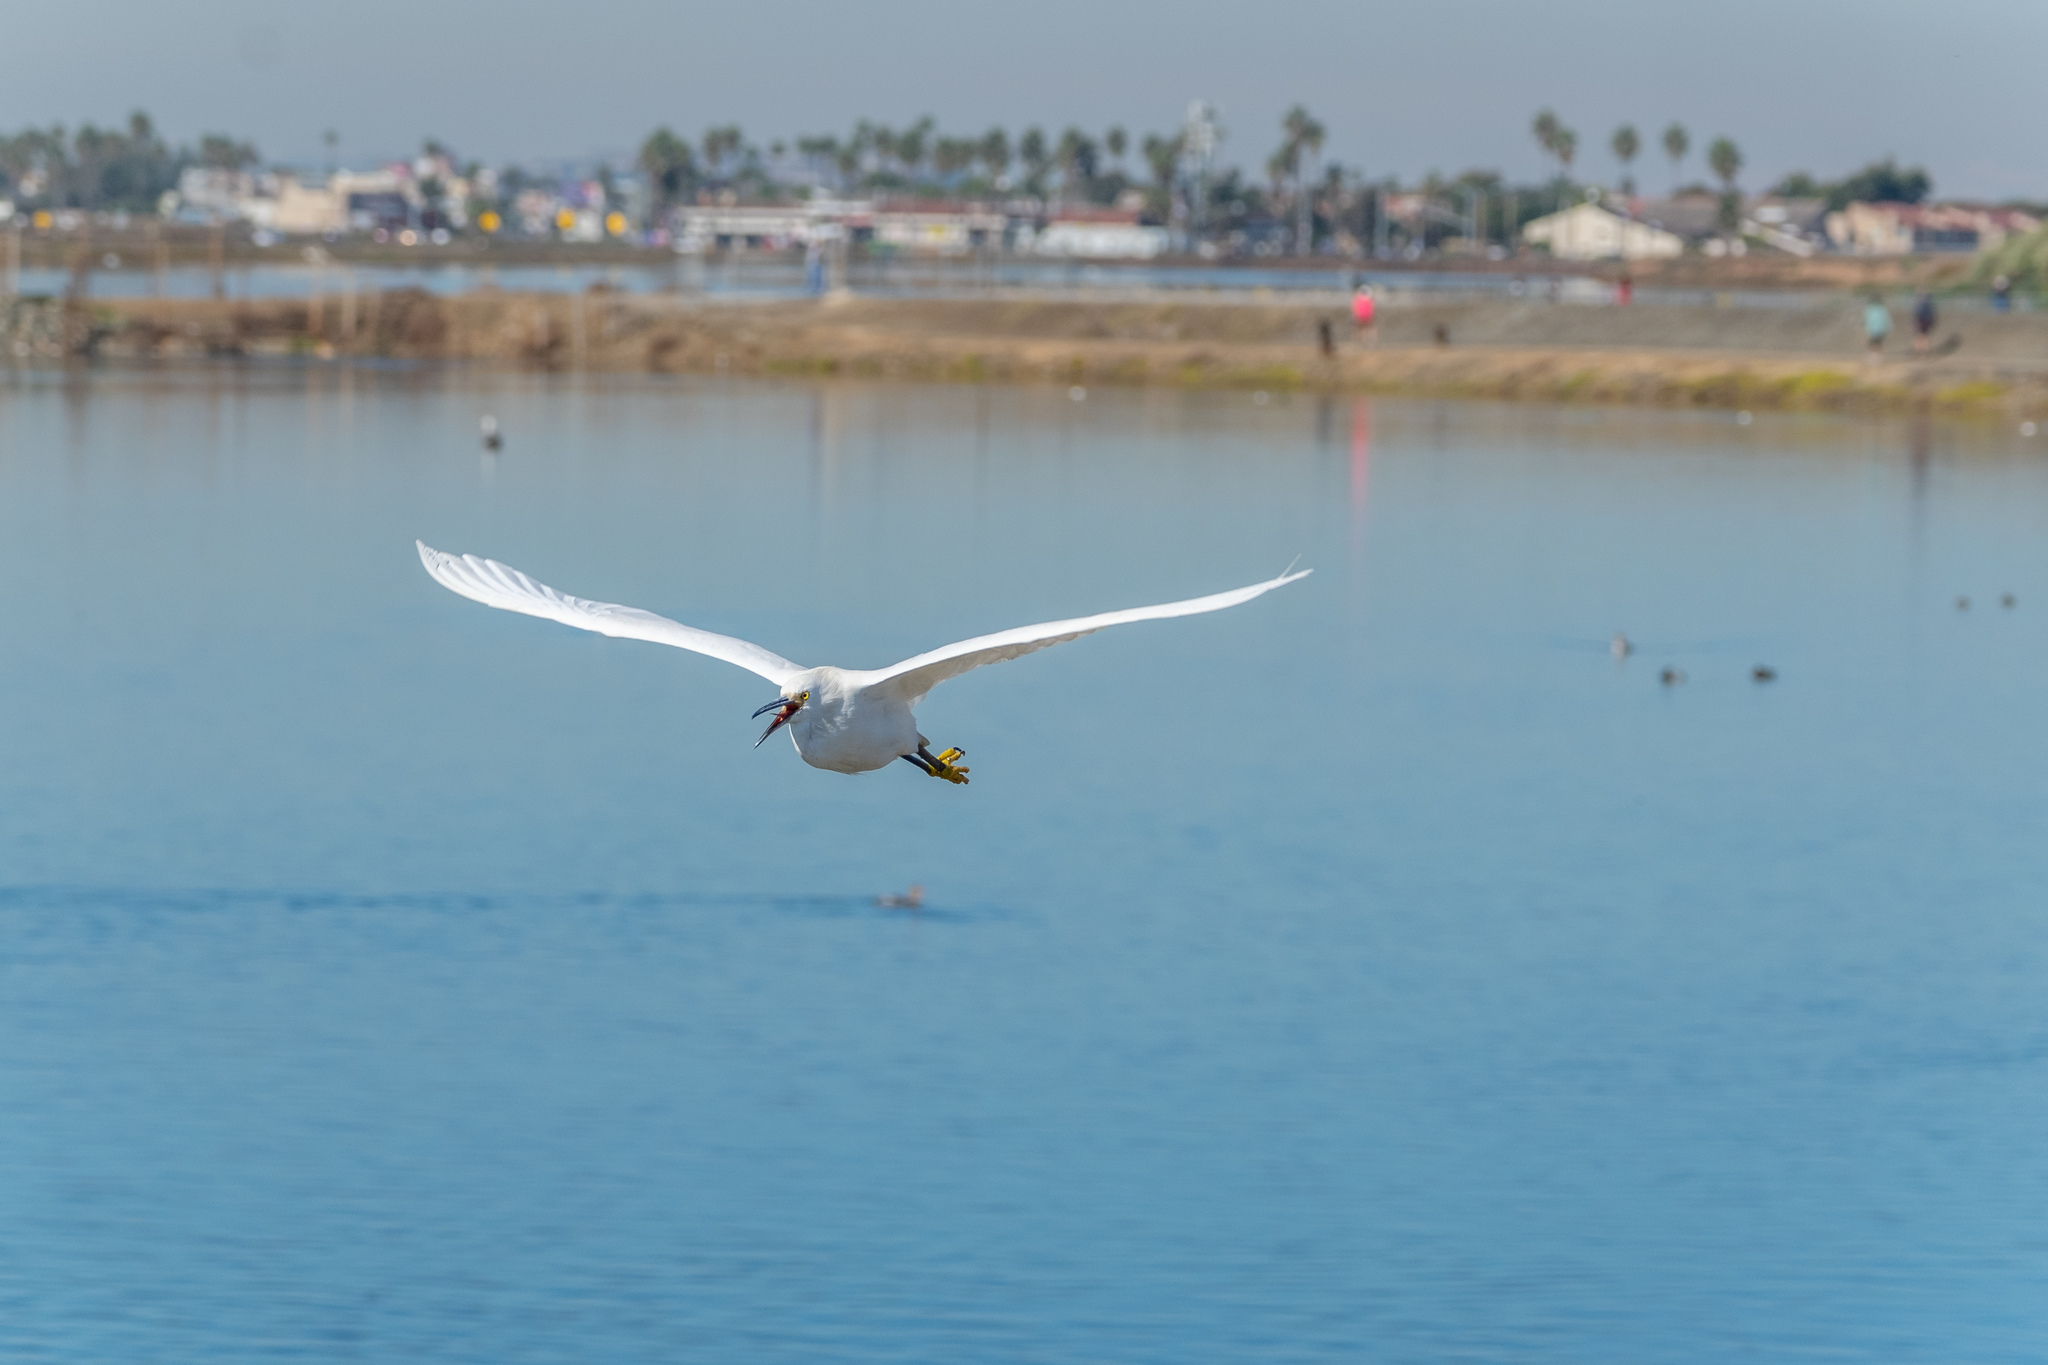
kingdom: Animalia
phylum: Chordata
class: Aves
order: Pelecaniformes
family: Ardeidae
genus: Egretta
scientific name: Egretta thula
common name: Snowy egret
